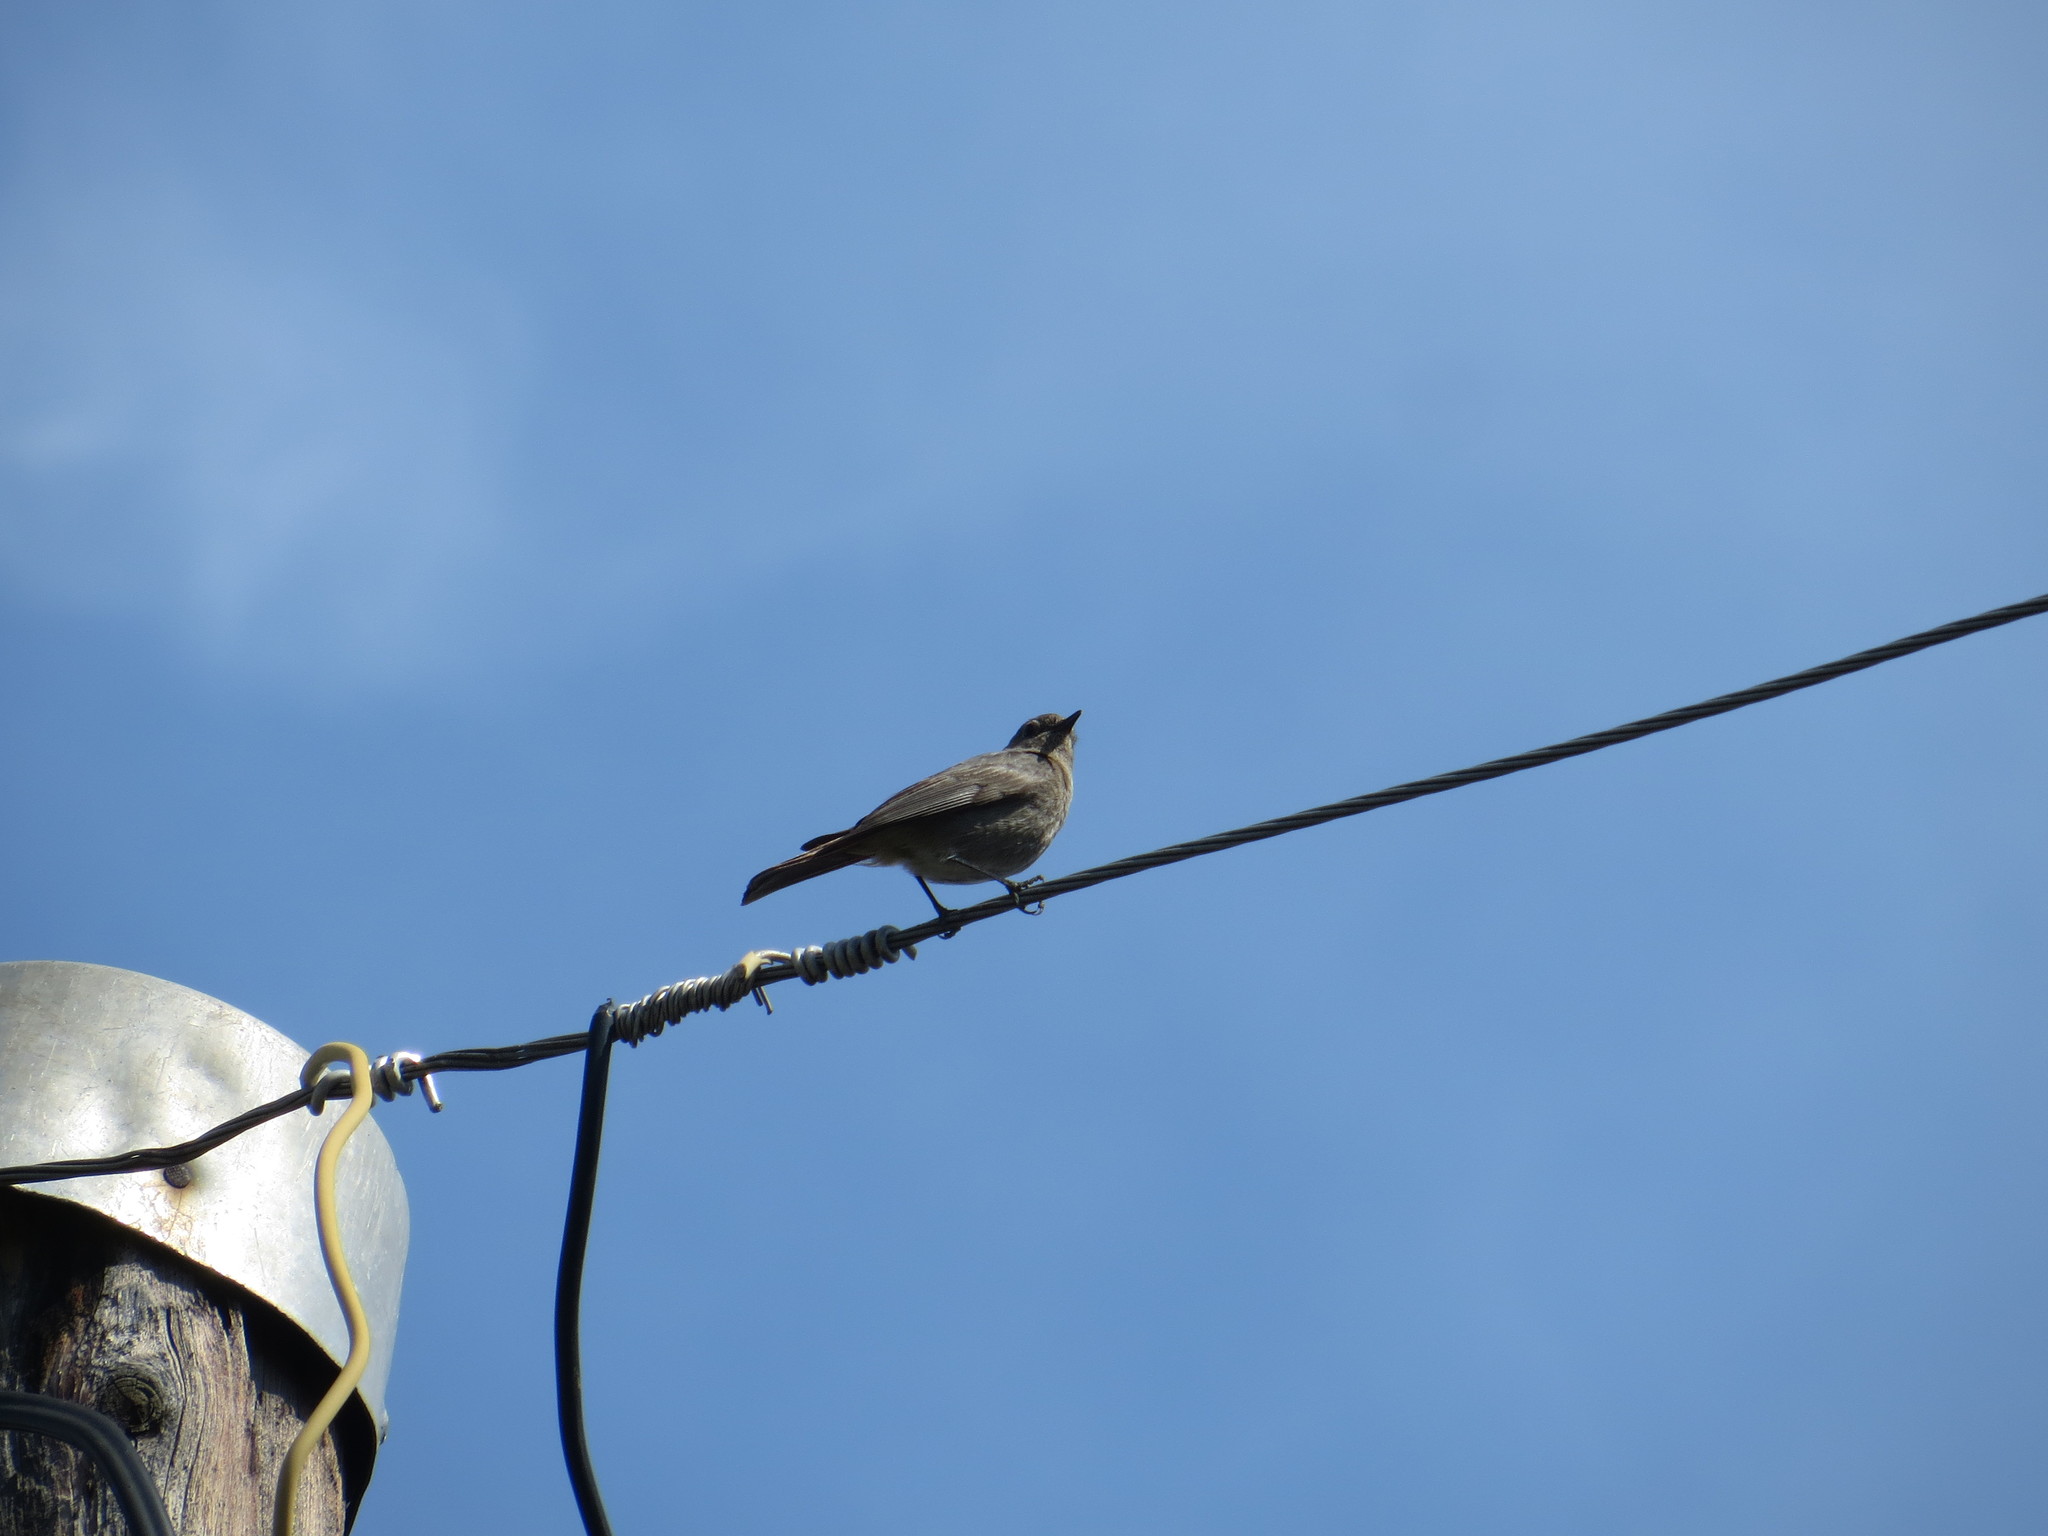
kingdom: Animalia
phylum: Chordata
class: Aves
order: Passeriformes
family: Muscicapidae
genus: Phoenicurus
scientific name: Phoenicurus ochruros
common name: Black redstart
